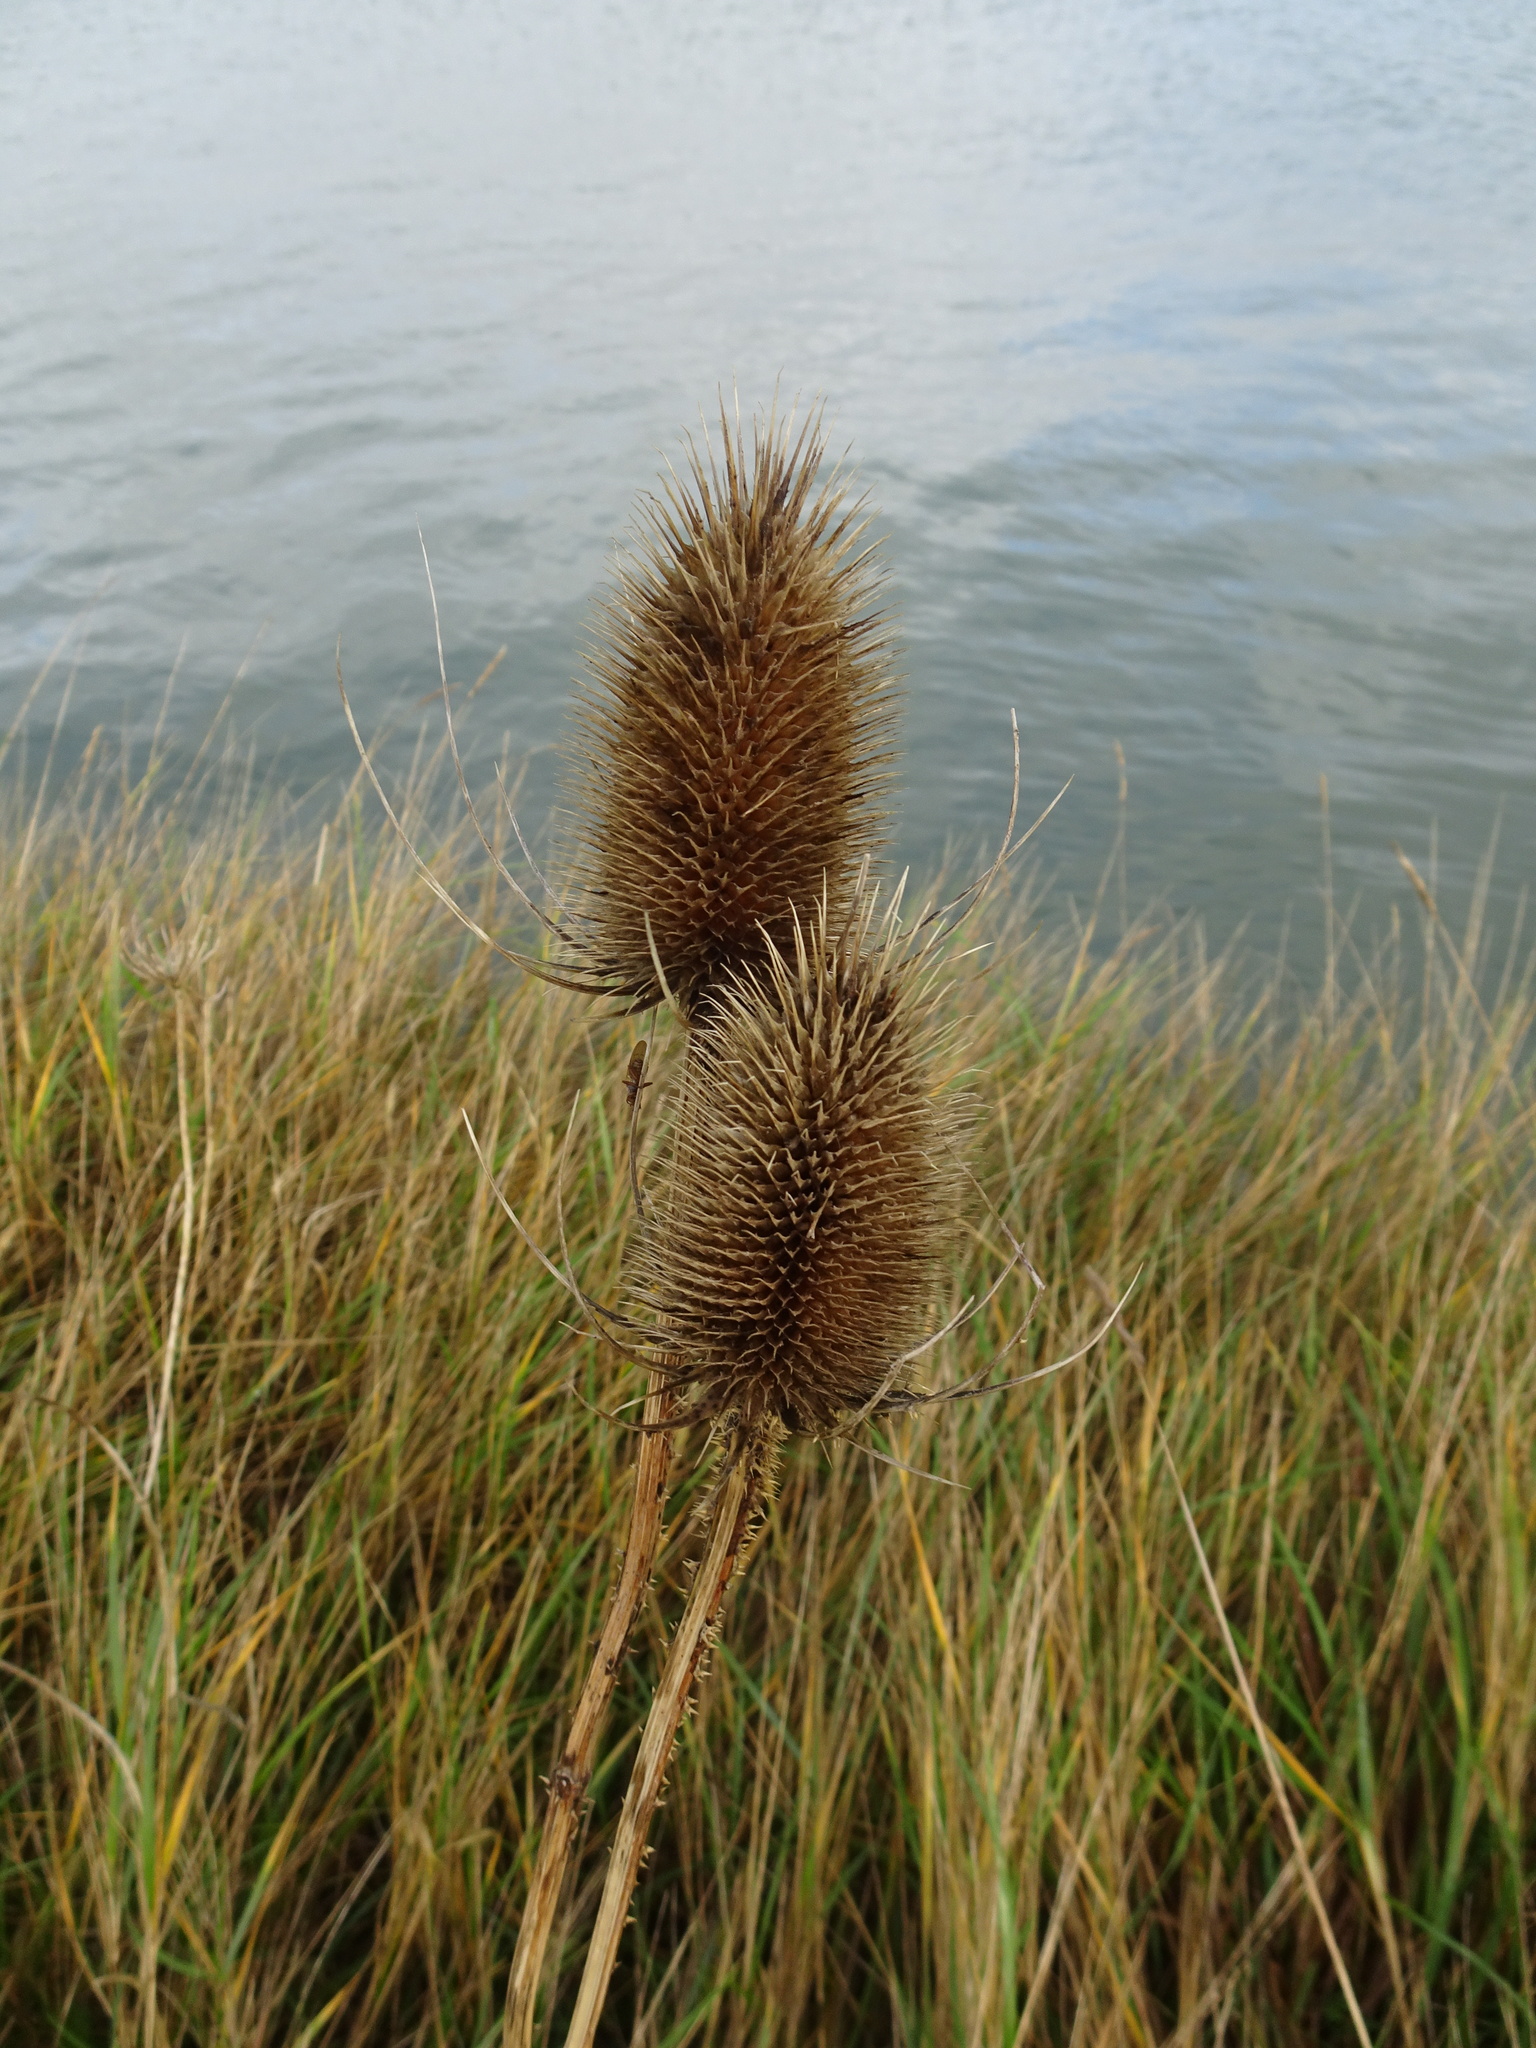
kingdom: Plantae
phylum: Tracheophyta
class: Magnoliopsida
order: Dipsacales
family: Caprifoliaceae
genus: Dipsacus
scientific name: Dipsacus fullonum
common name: Teasel
